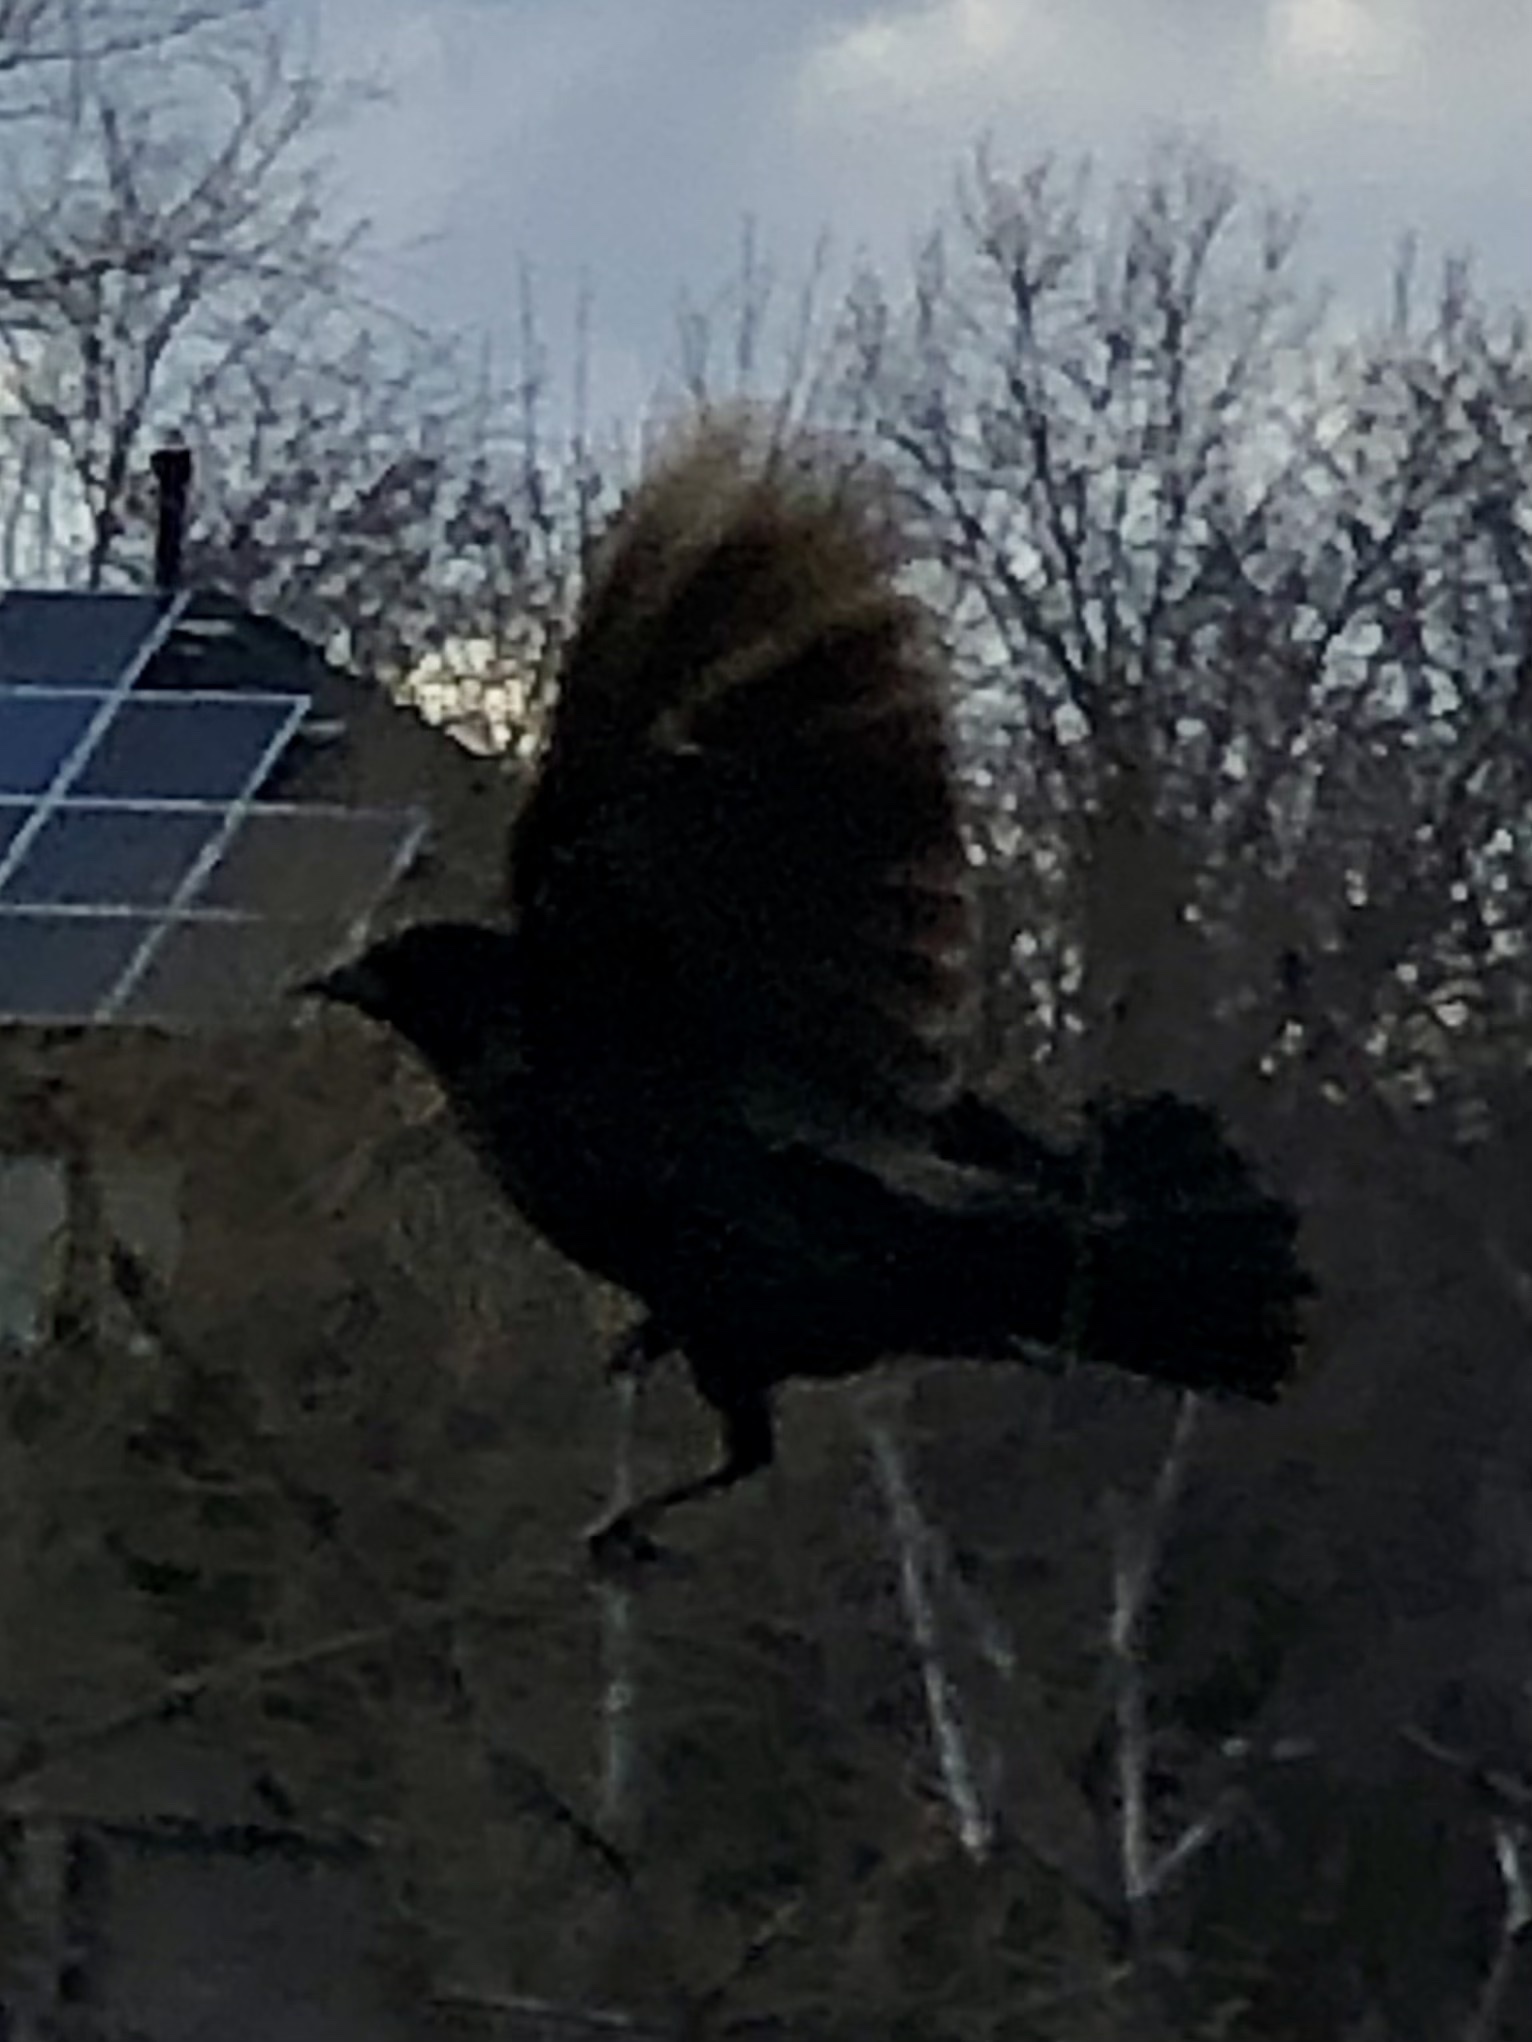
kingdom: Animalia
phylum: Chordata
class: Aves
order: Passeriformes
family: Icteridae
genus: Agelaius
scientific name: Agelaius phoeniceus
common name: Red-winged blackbird
